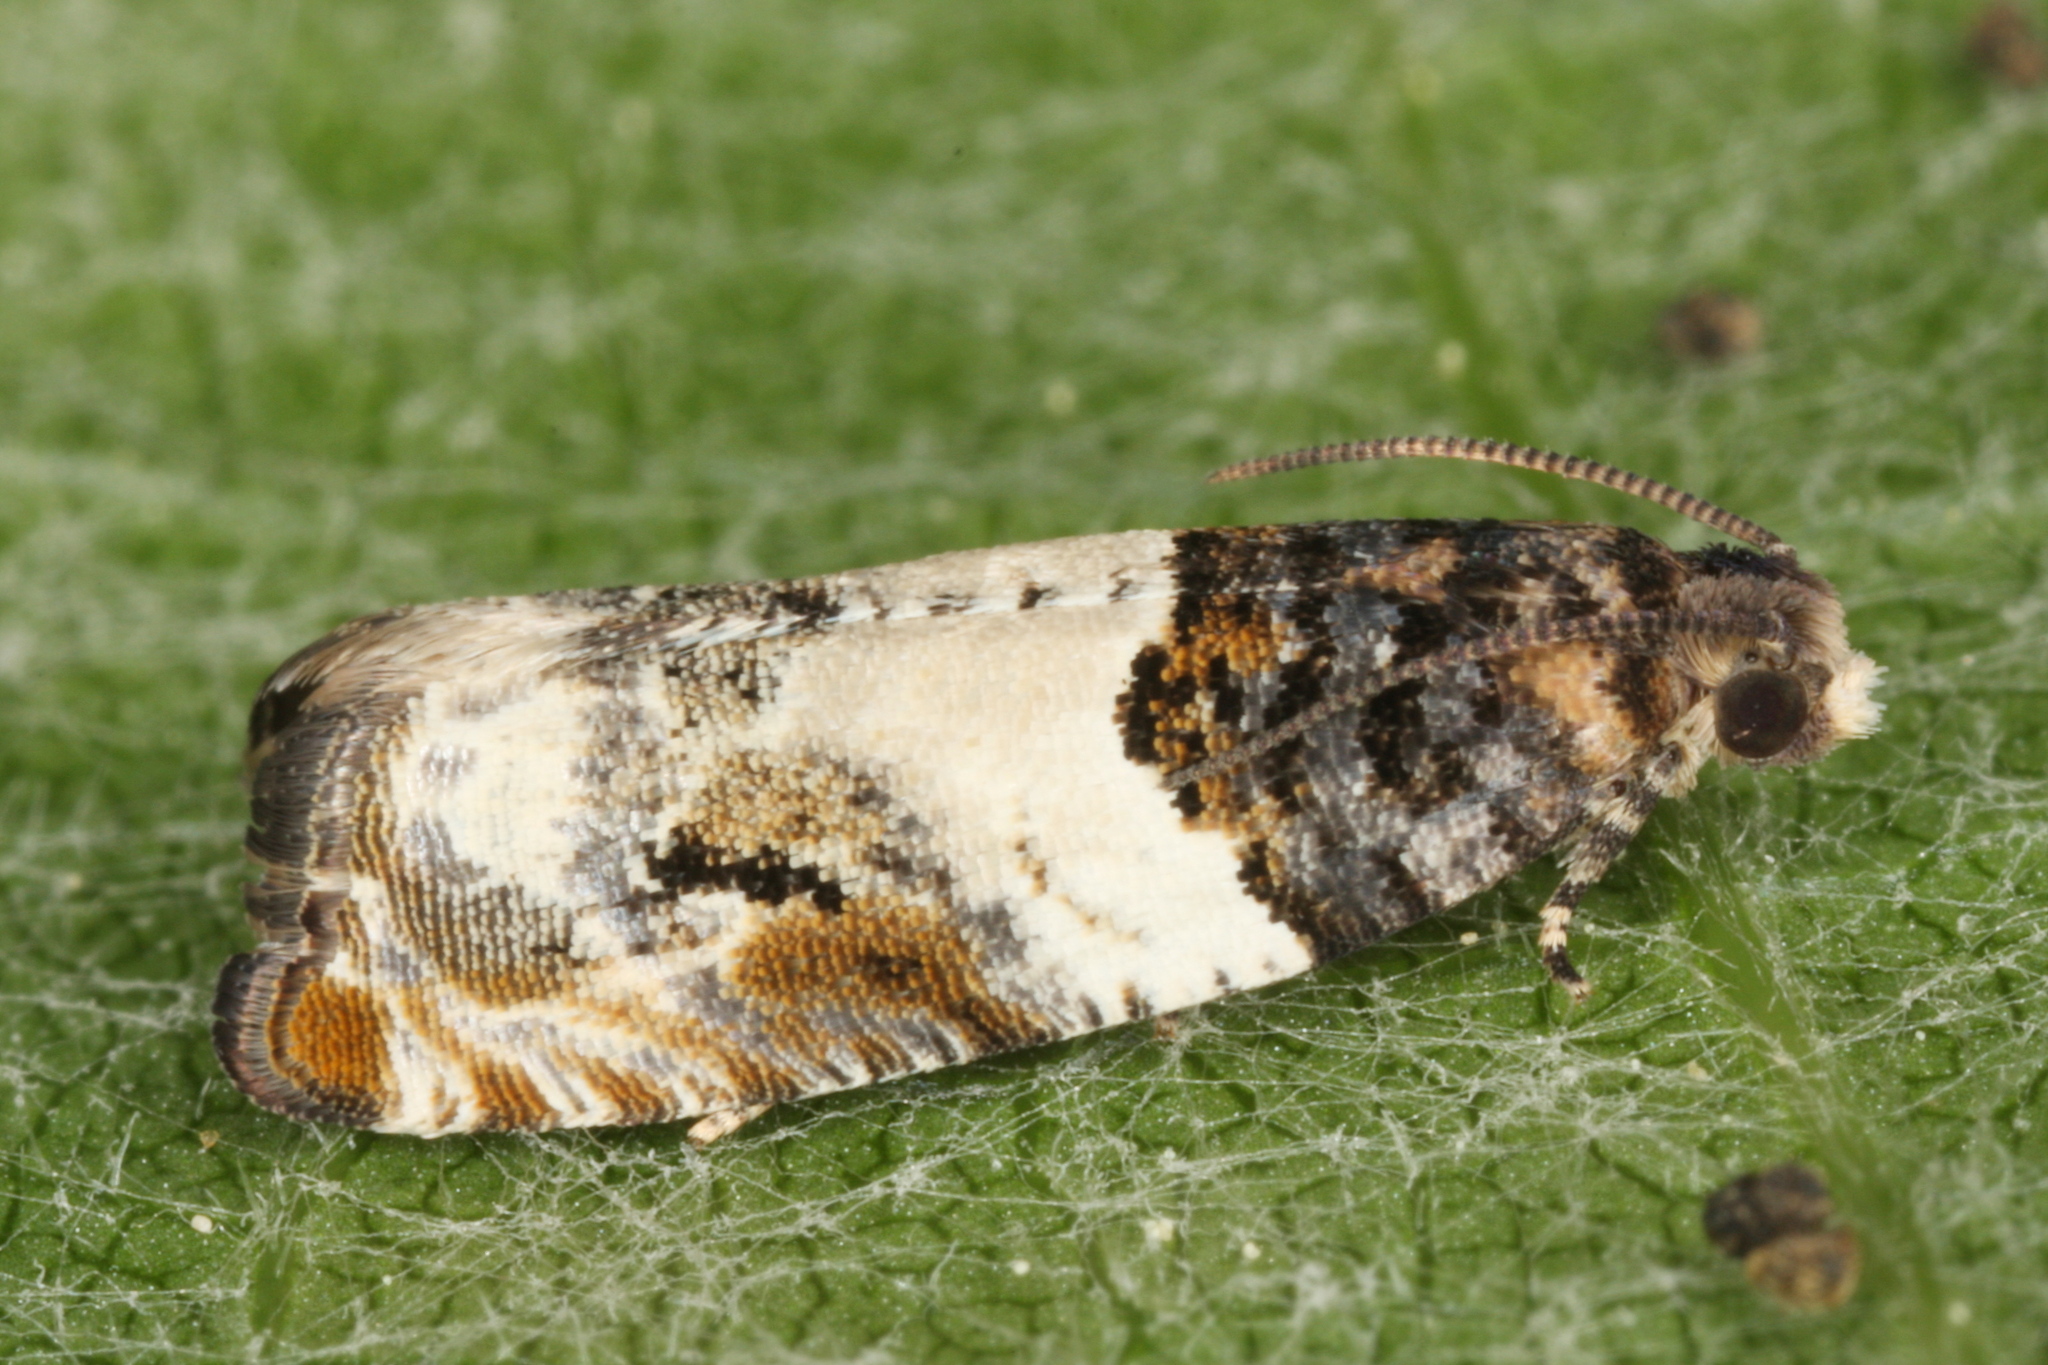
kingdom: Animalia
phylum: Arthropoda
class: Insecta
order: Lepidoptera
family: Tortricidae
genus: Gypsonoma
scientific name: Gypsonoma dealbana
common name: Common cloaked shoot
